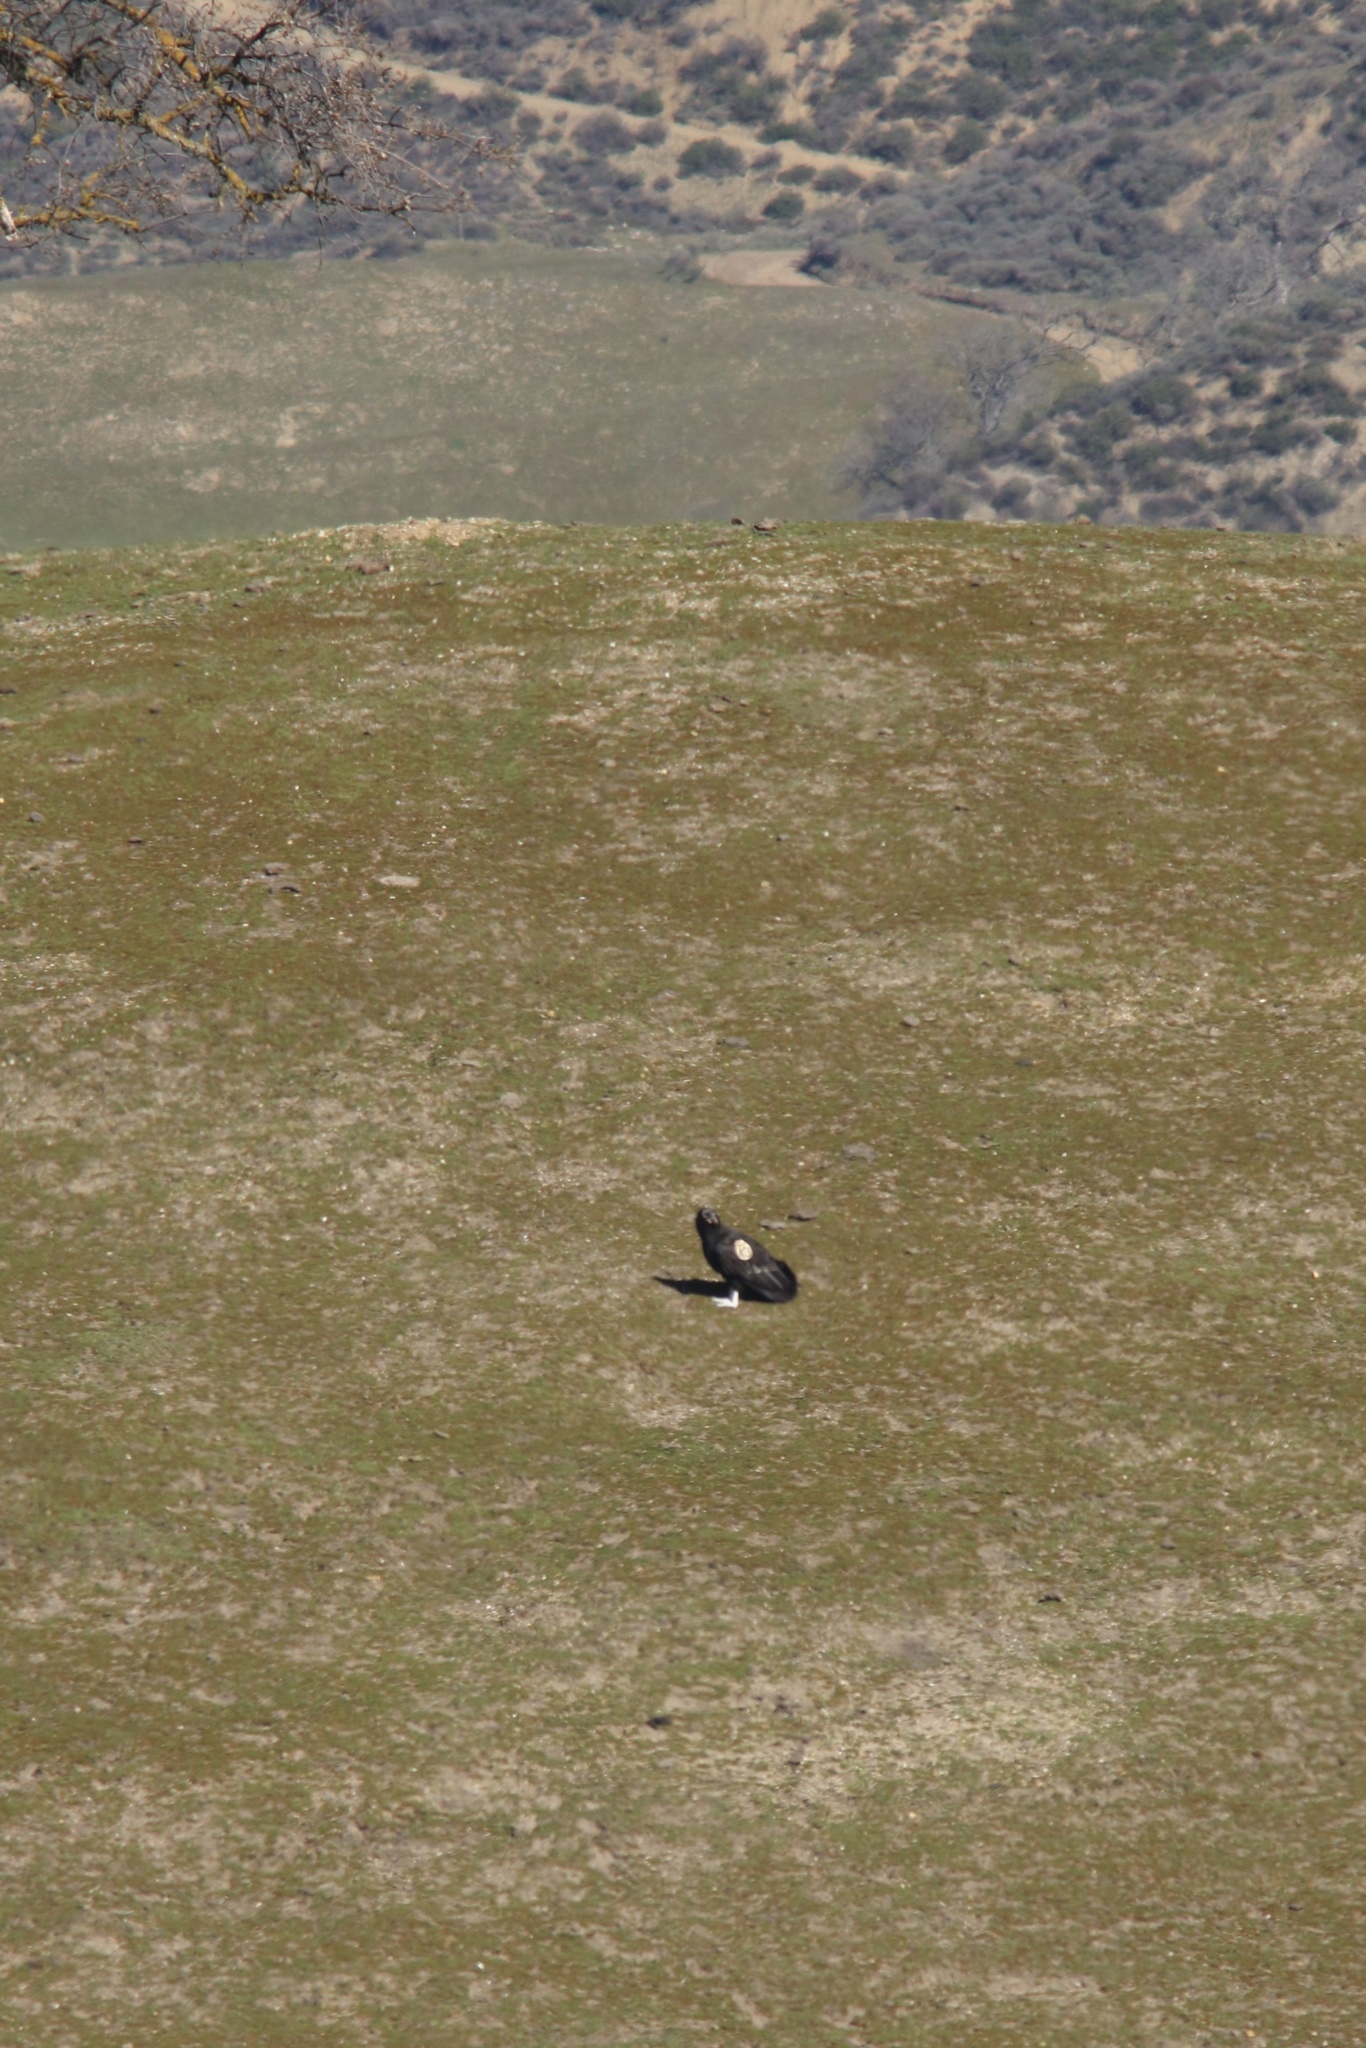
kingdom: Animalia
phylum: Chordata
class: Aves
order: Accipitriformes
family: Cathartidae
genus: Gymnogyps
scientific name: Gymnogyps californianus
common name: California condor
